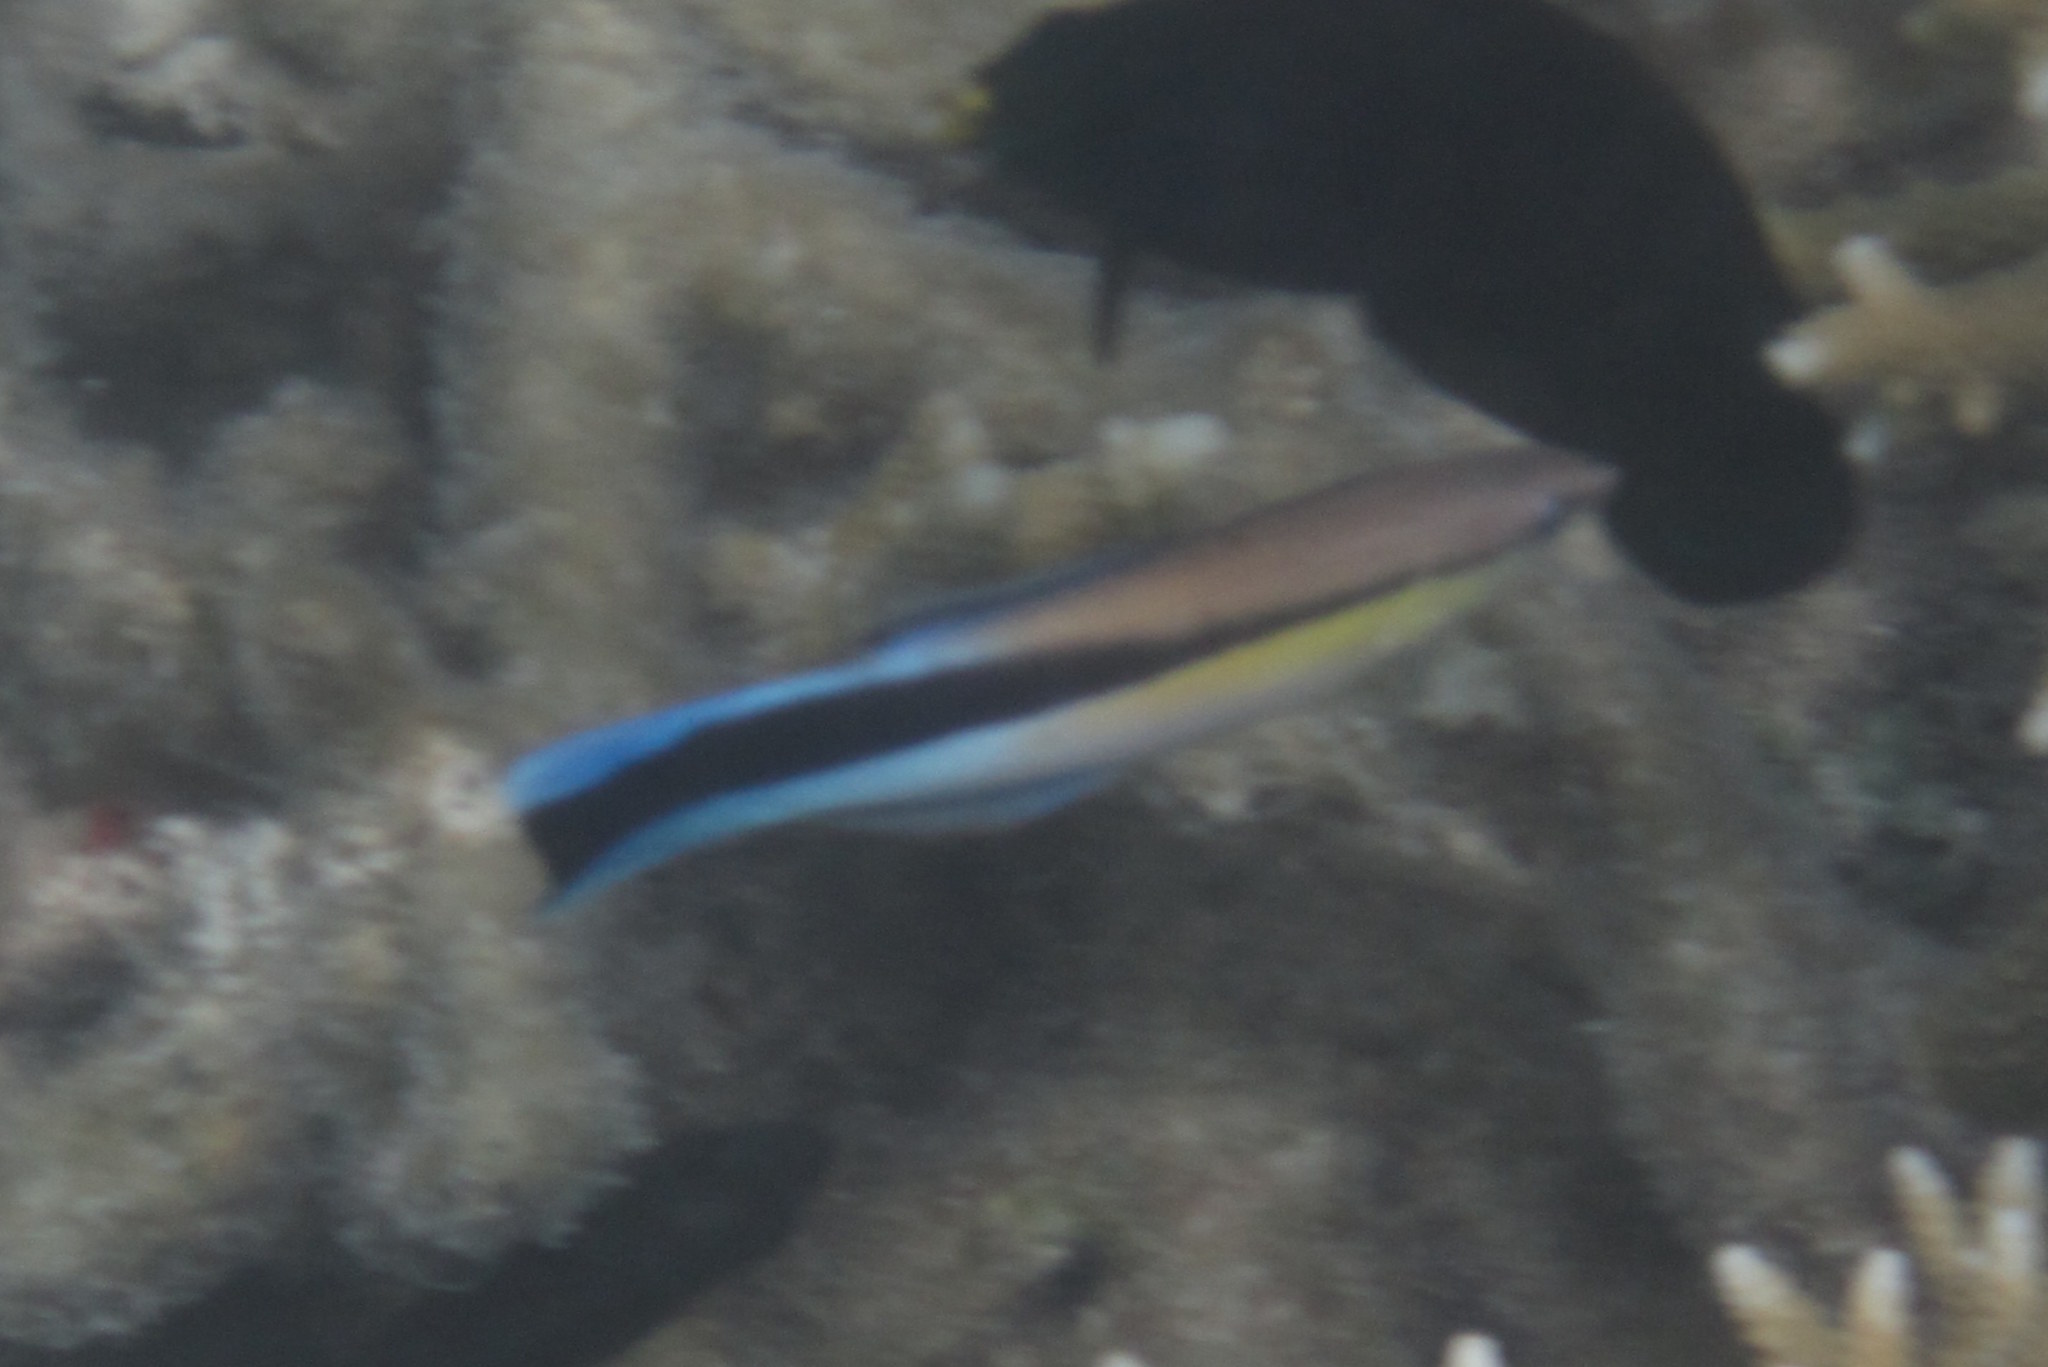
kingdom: Animalia
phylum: Chordata
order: Perciformes
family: Labridae
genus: Labroides
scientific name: Labroides dimidiatus
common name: Blue diesel wrasse
